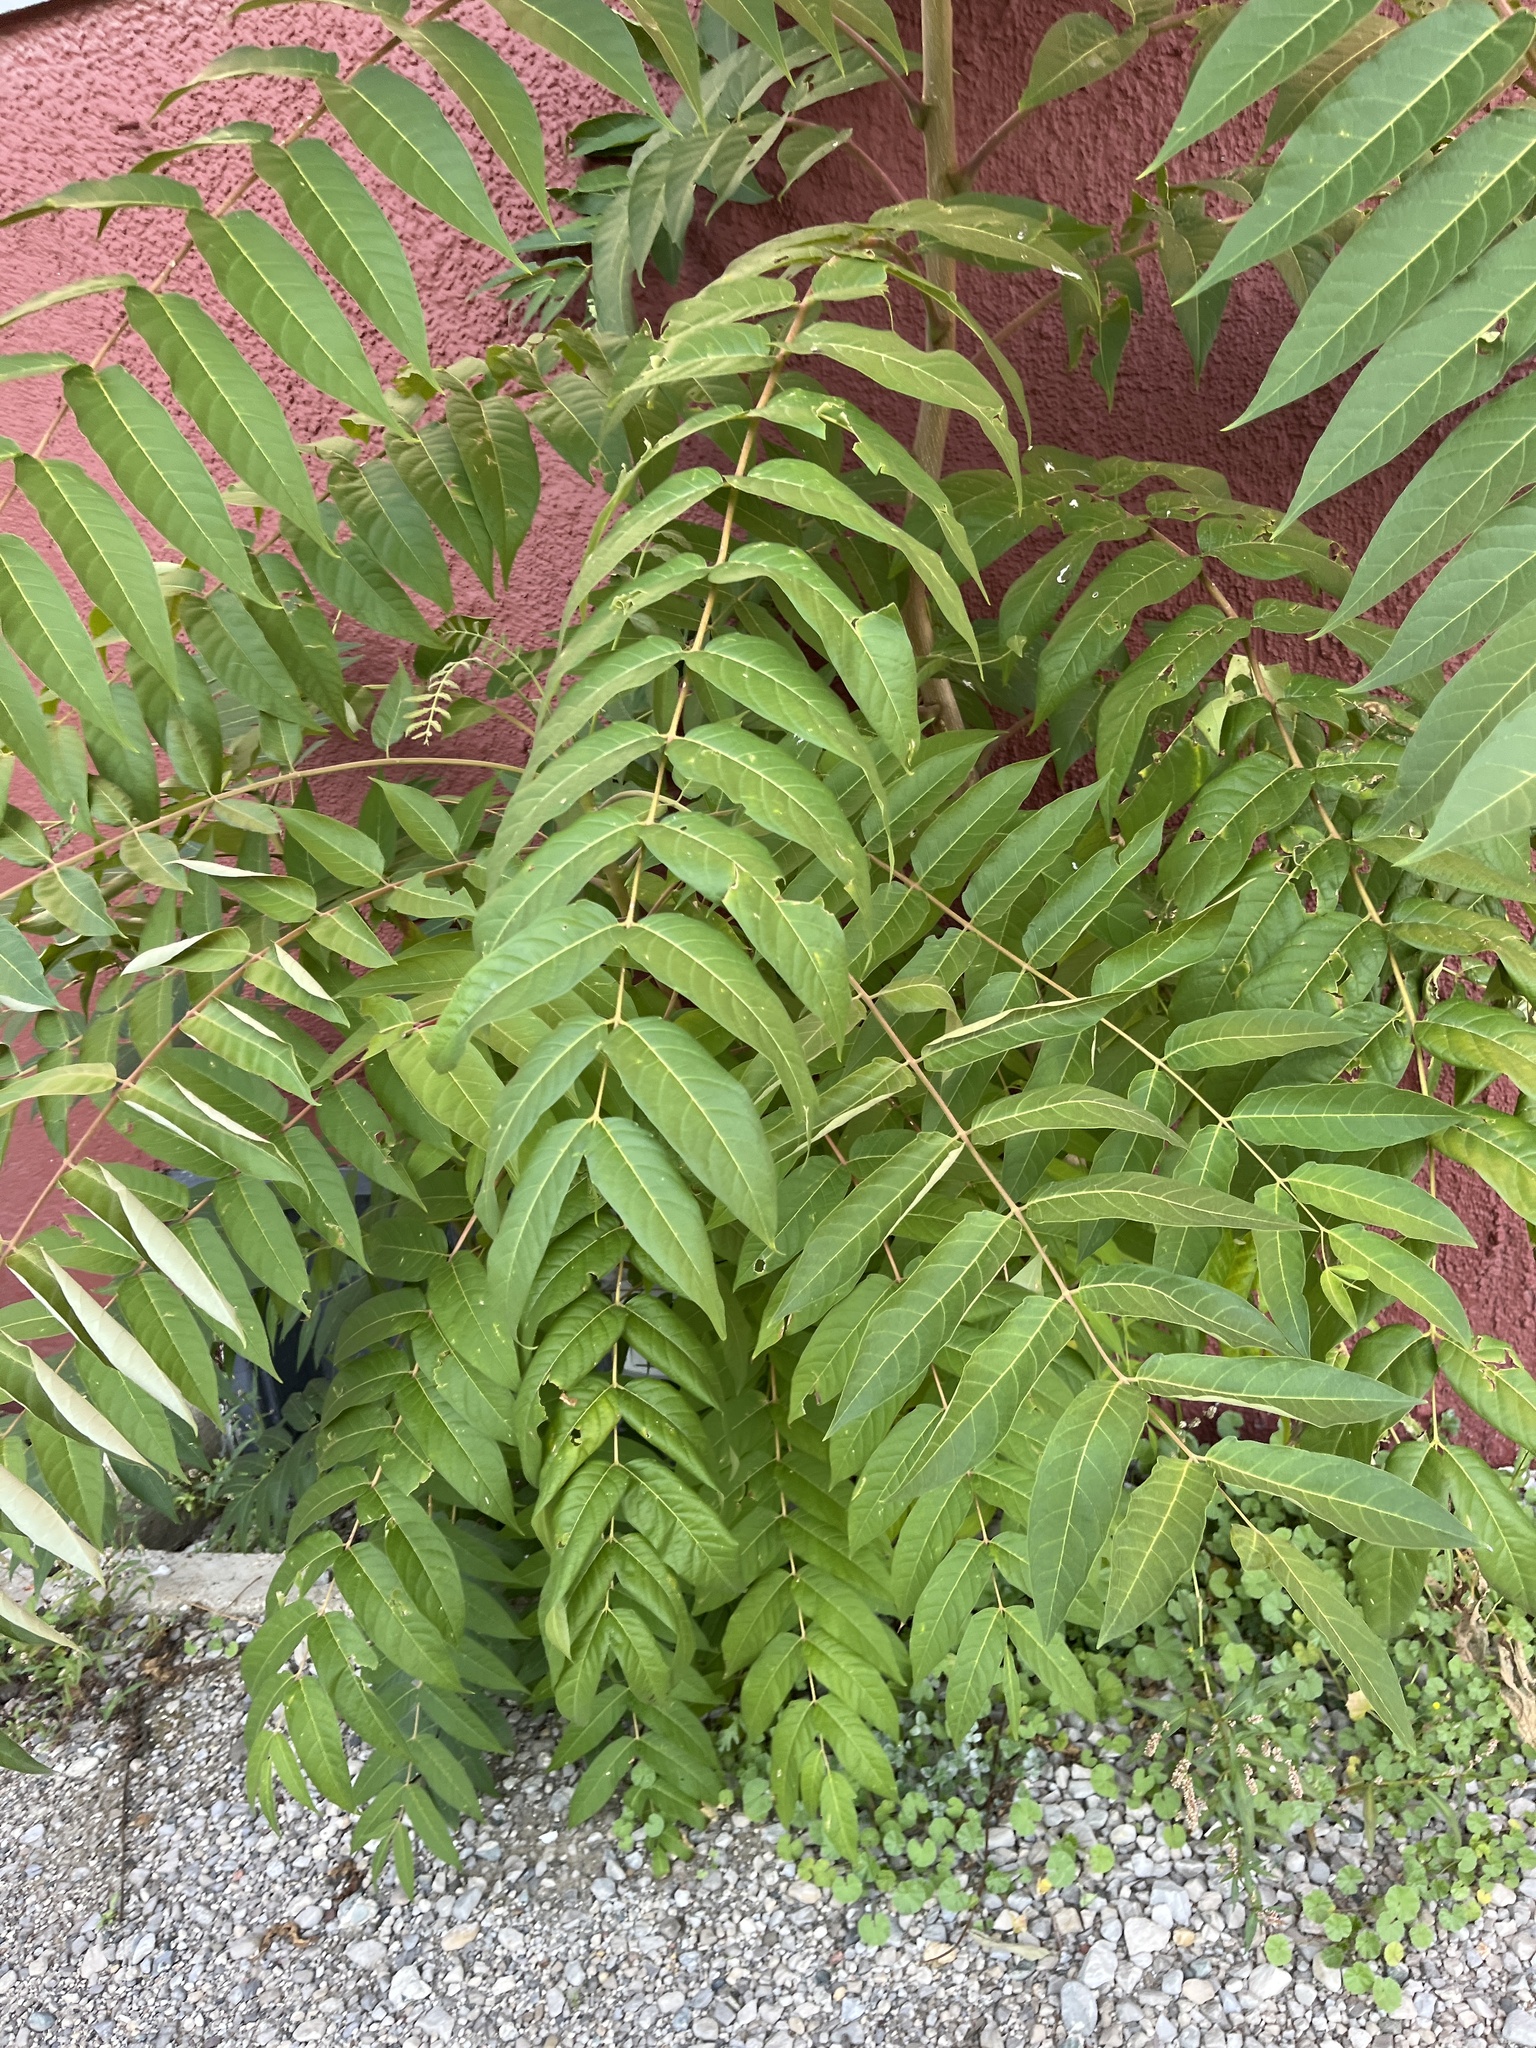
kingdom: Plantae
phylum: Tracheophyta
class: Magnoliopsida
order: Sapindales
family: Simaroubaceae
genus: Ailanthus
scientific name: Ailanthus altissima
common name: Tree-of-heaven
